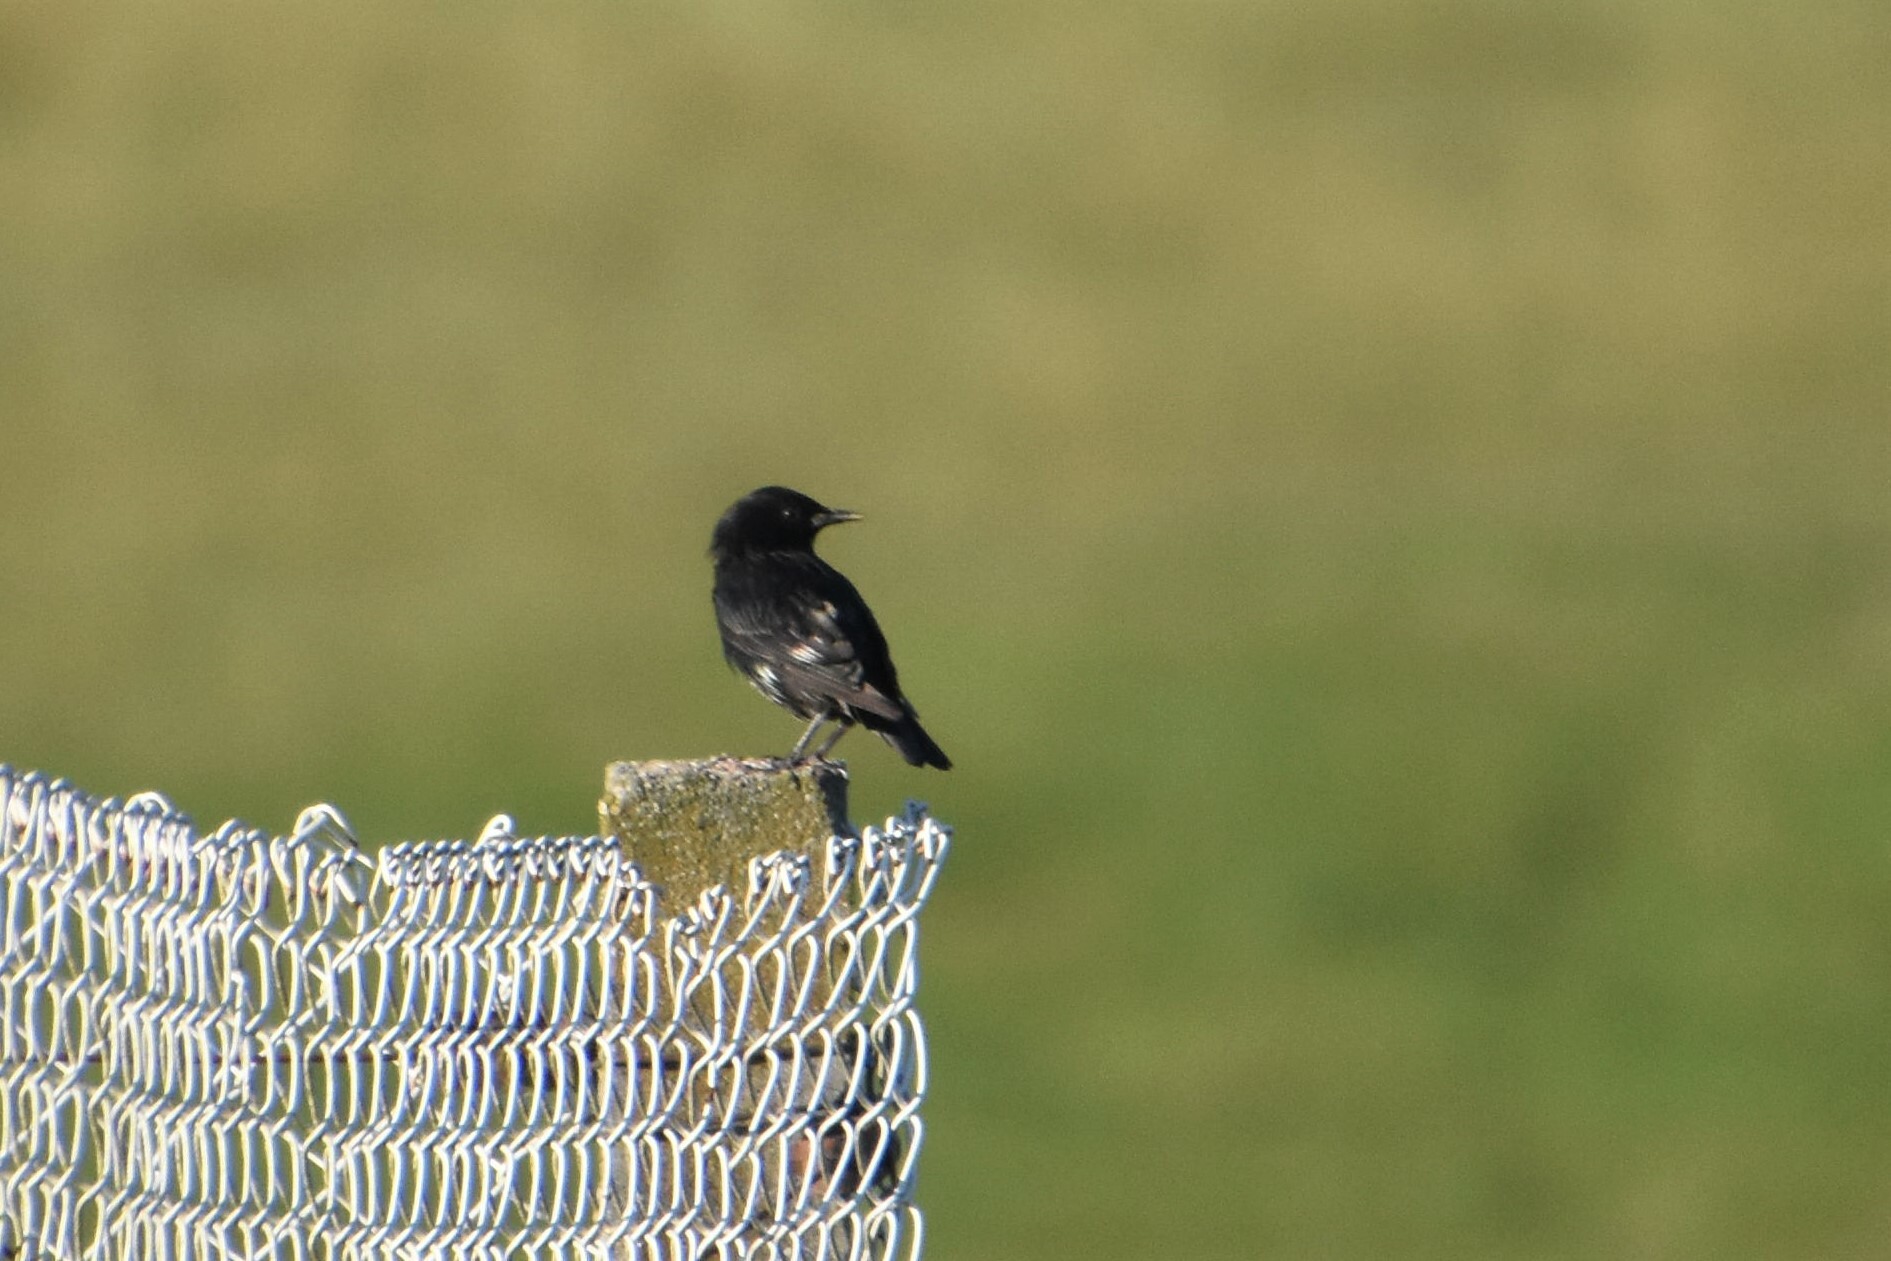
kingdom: Animalia
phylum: Chordata
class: Aves
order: Passeriformes
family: Sturnidae
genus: Sturnus
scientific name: Sturnus unicolor
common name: Spotless starling
